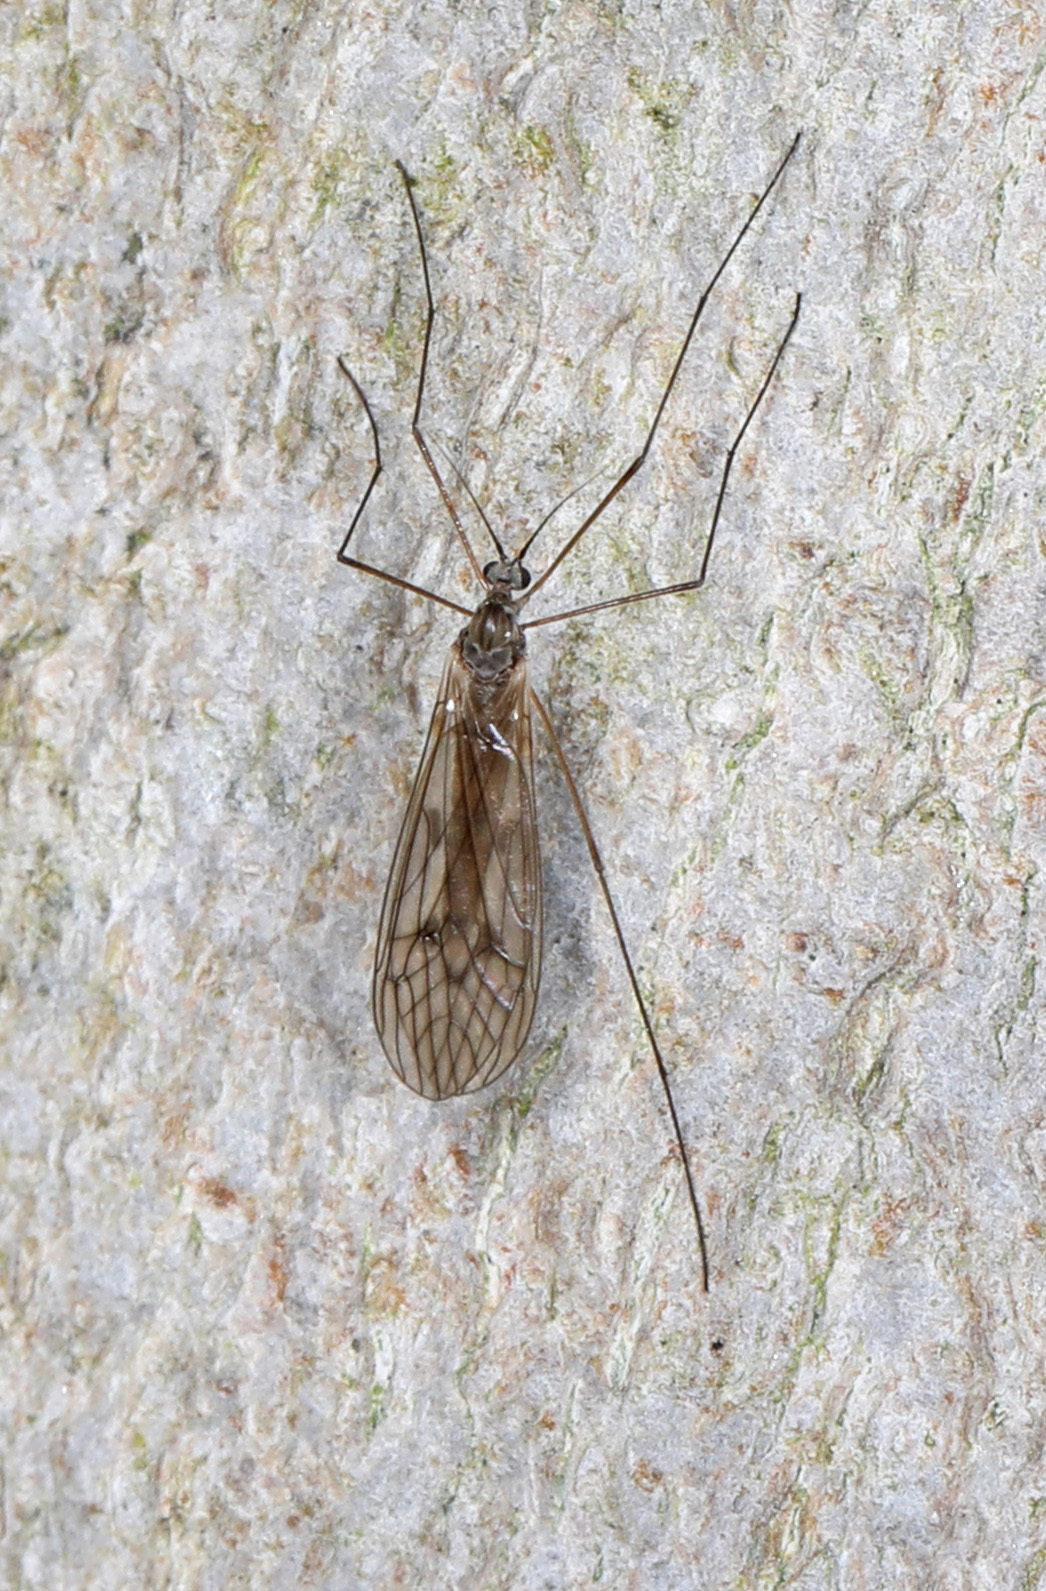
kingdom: Animalia
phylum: Arthropoda
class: Insecta
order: Diptera
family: Trichoceridae
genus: Trichocera
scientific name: Trichocera bimacula
